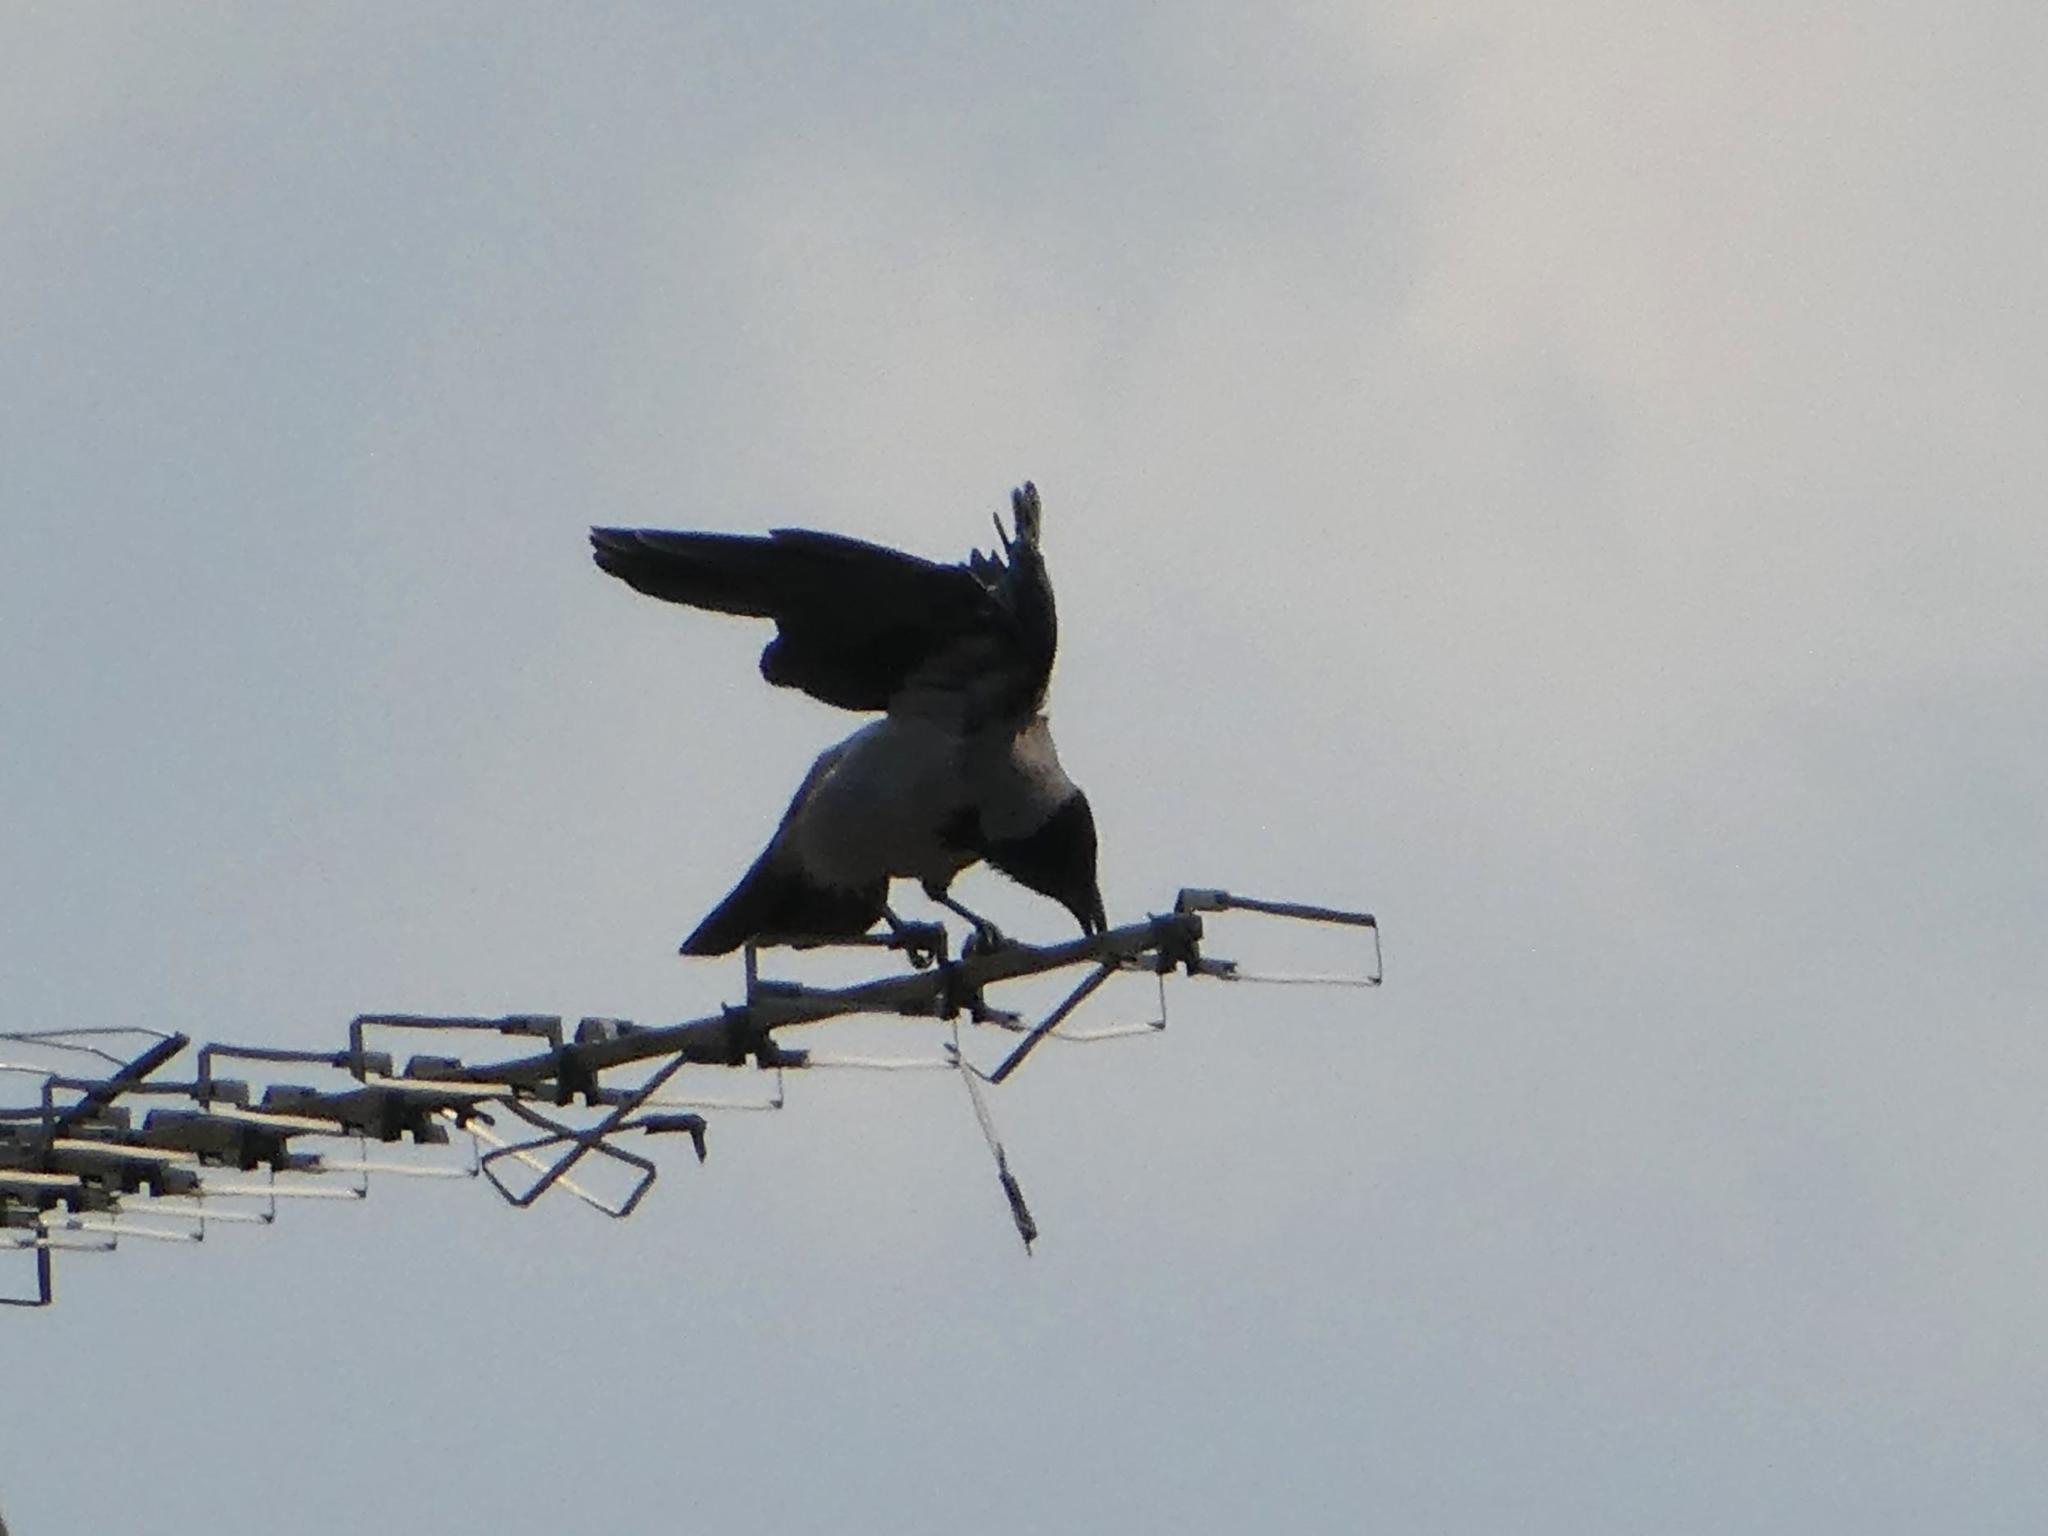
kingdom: Animalia
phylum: Chordata
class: Aves
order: Passeriformes
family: Corvidae
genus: Corvus
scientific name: Corvus cornix
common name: Hooded crow
